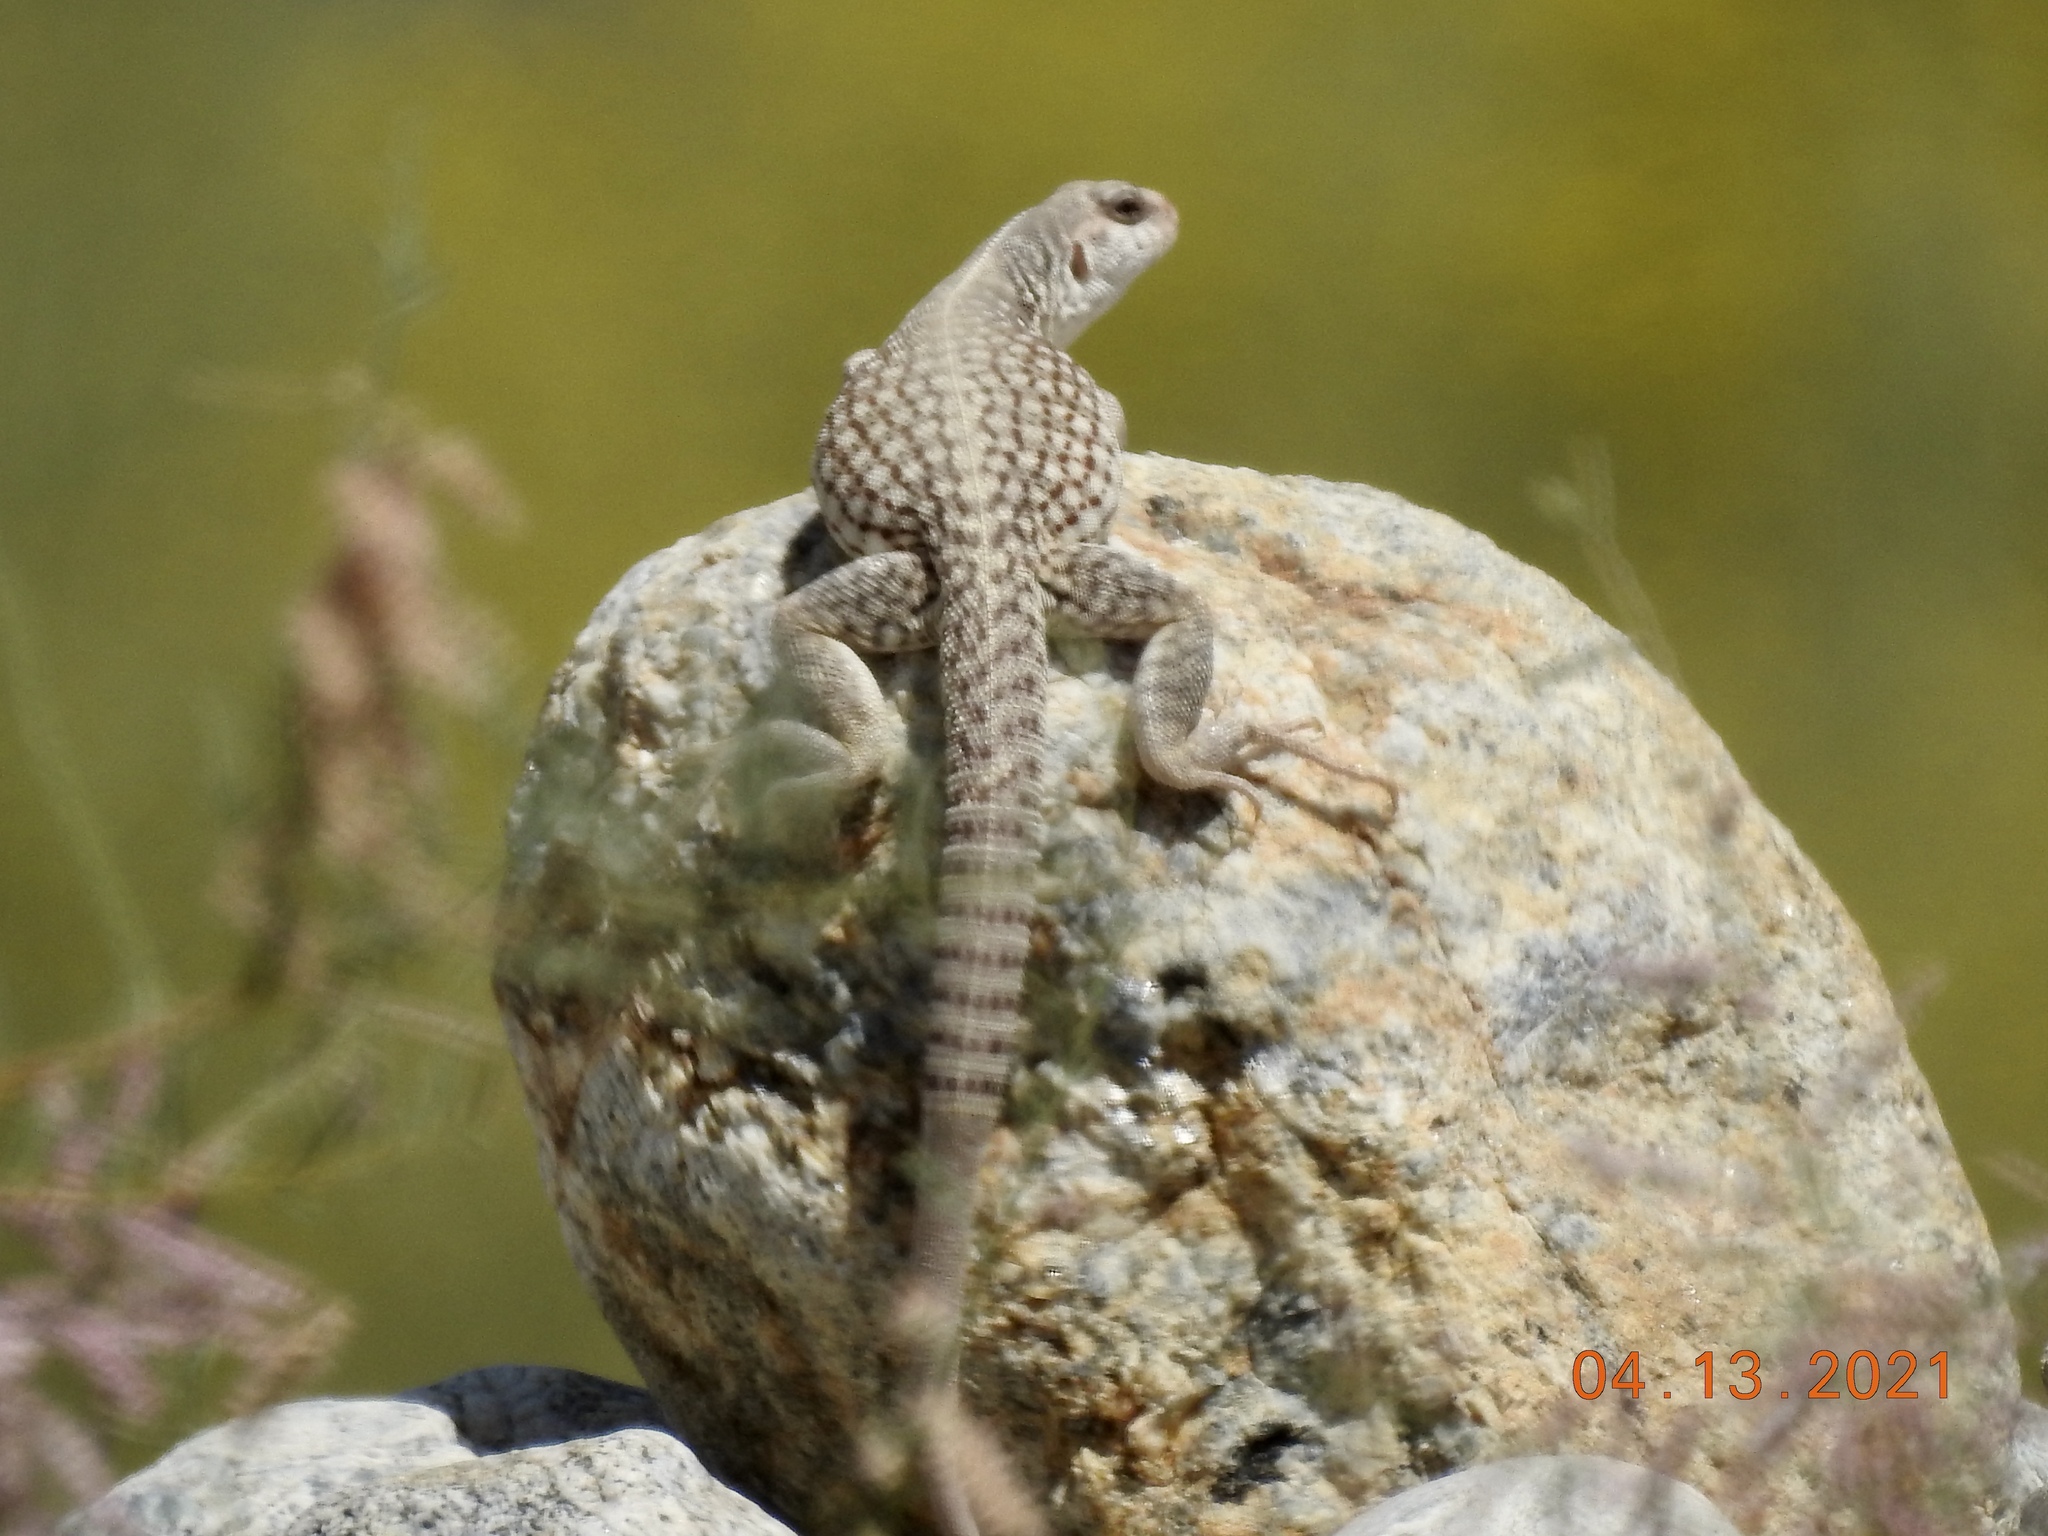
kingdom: Animalia
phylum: Chordata
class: Squamata
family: Iguanidae
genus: Dipsosaurus
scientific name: Dipsosaurus dorsalis
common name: Desert iguana
